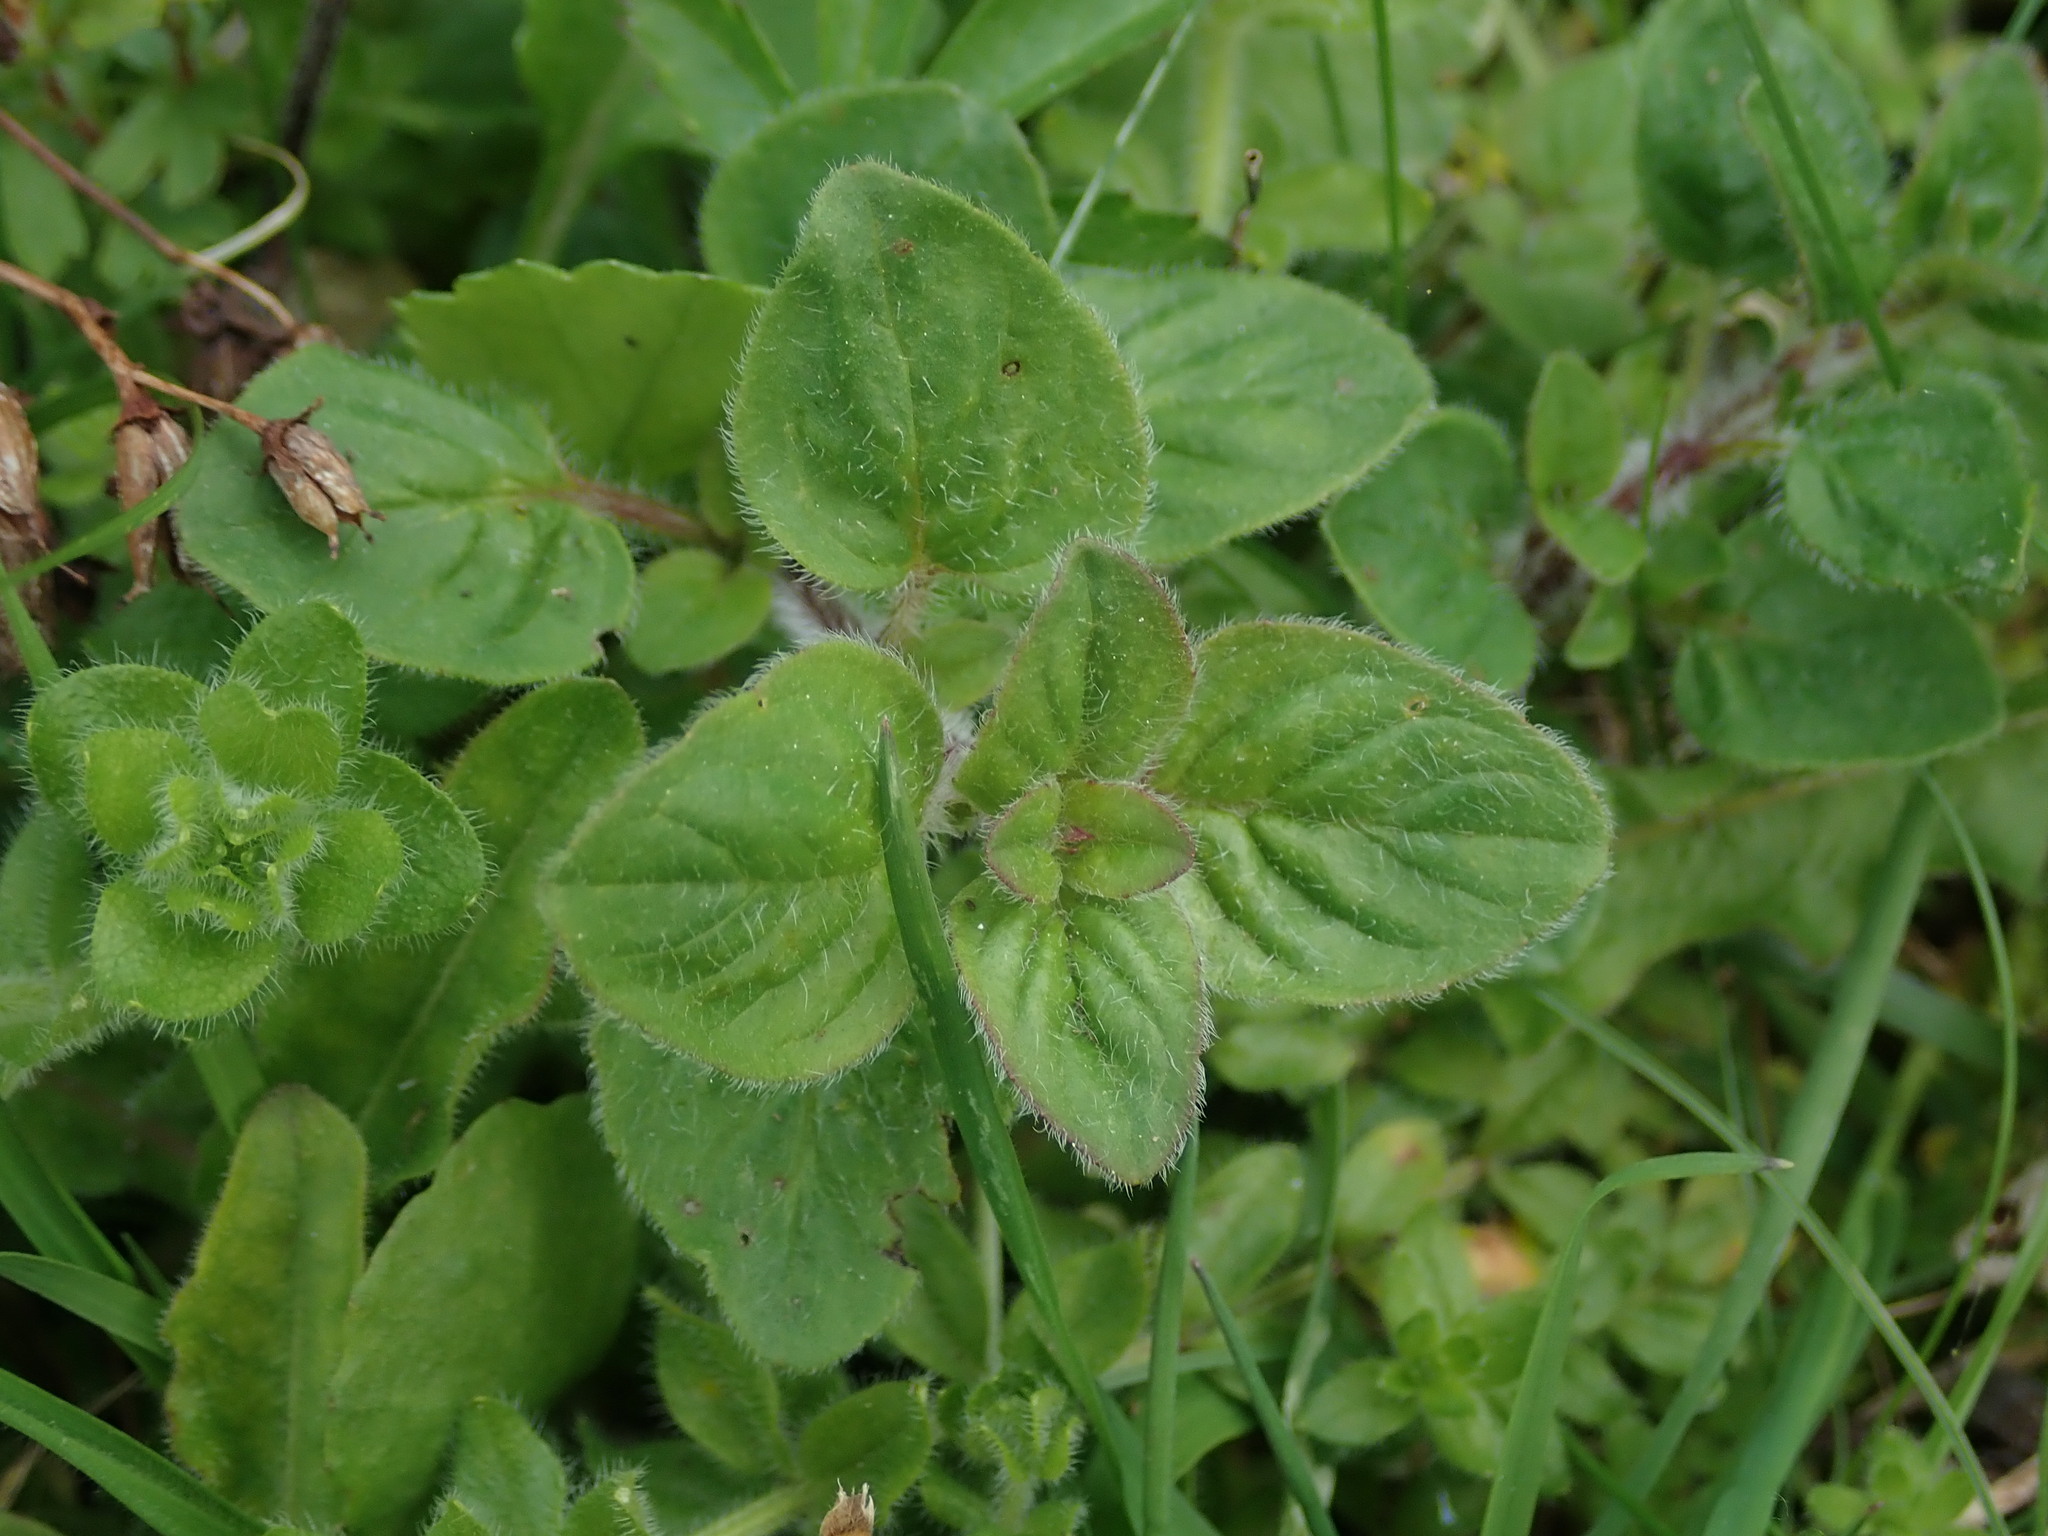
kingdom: Plantae
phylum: Tracheophyta
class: Magnoliopsida
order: Lamiales
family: Lamiaceae
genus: Origanum
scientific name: Origanum vulgare
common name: Wild marjoram
